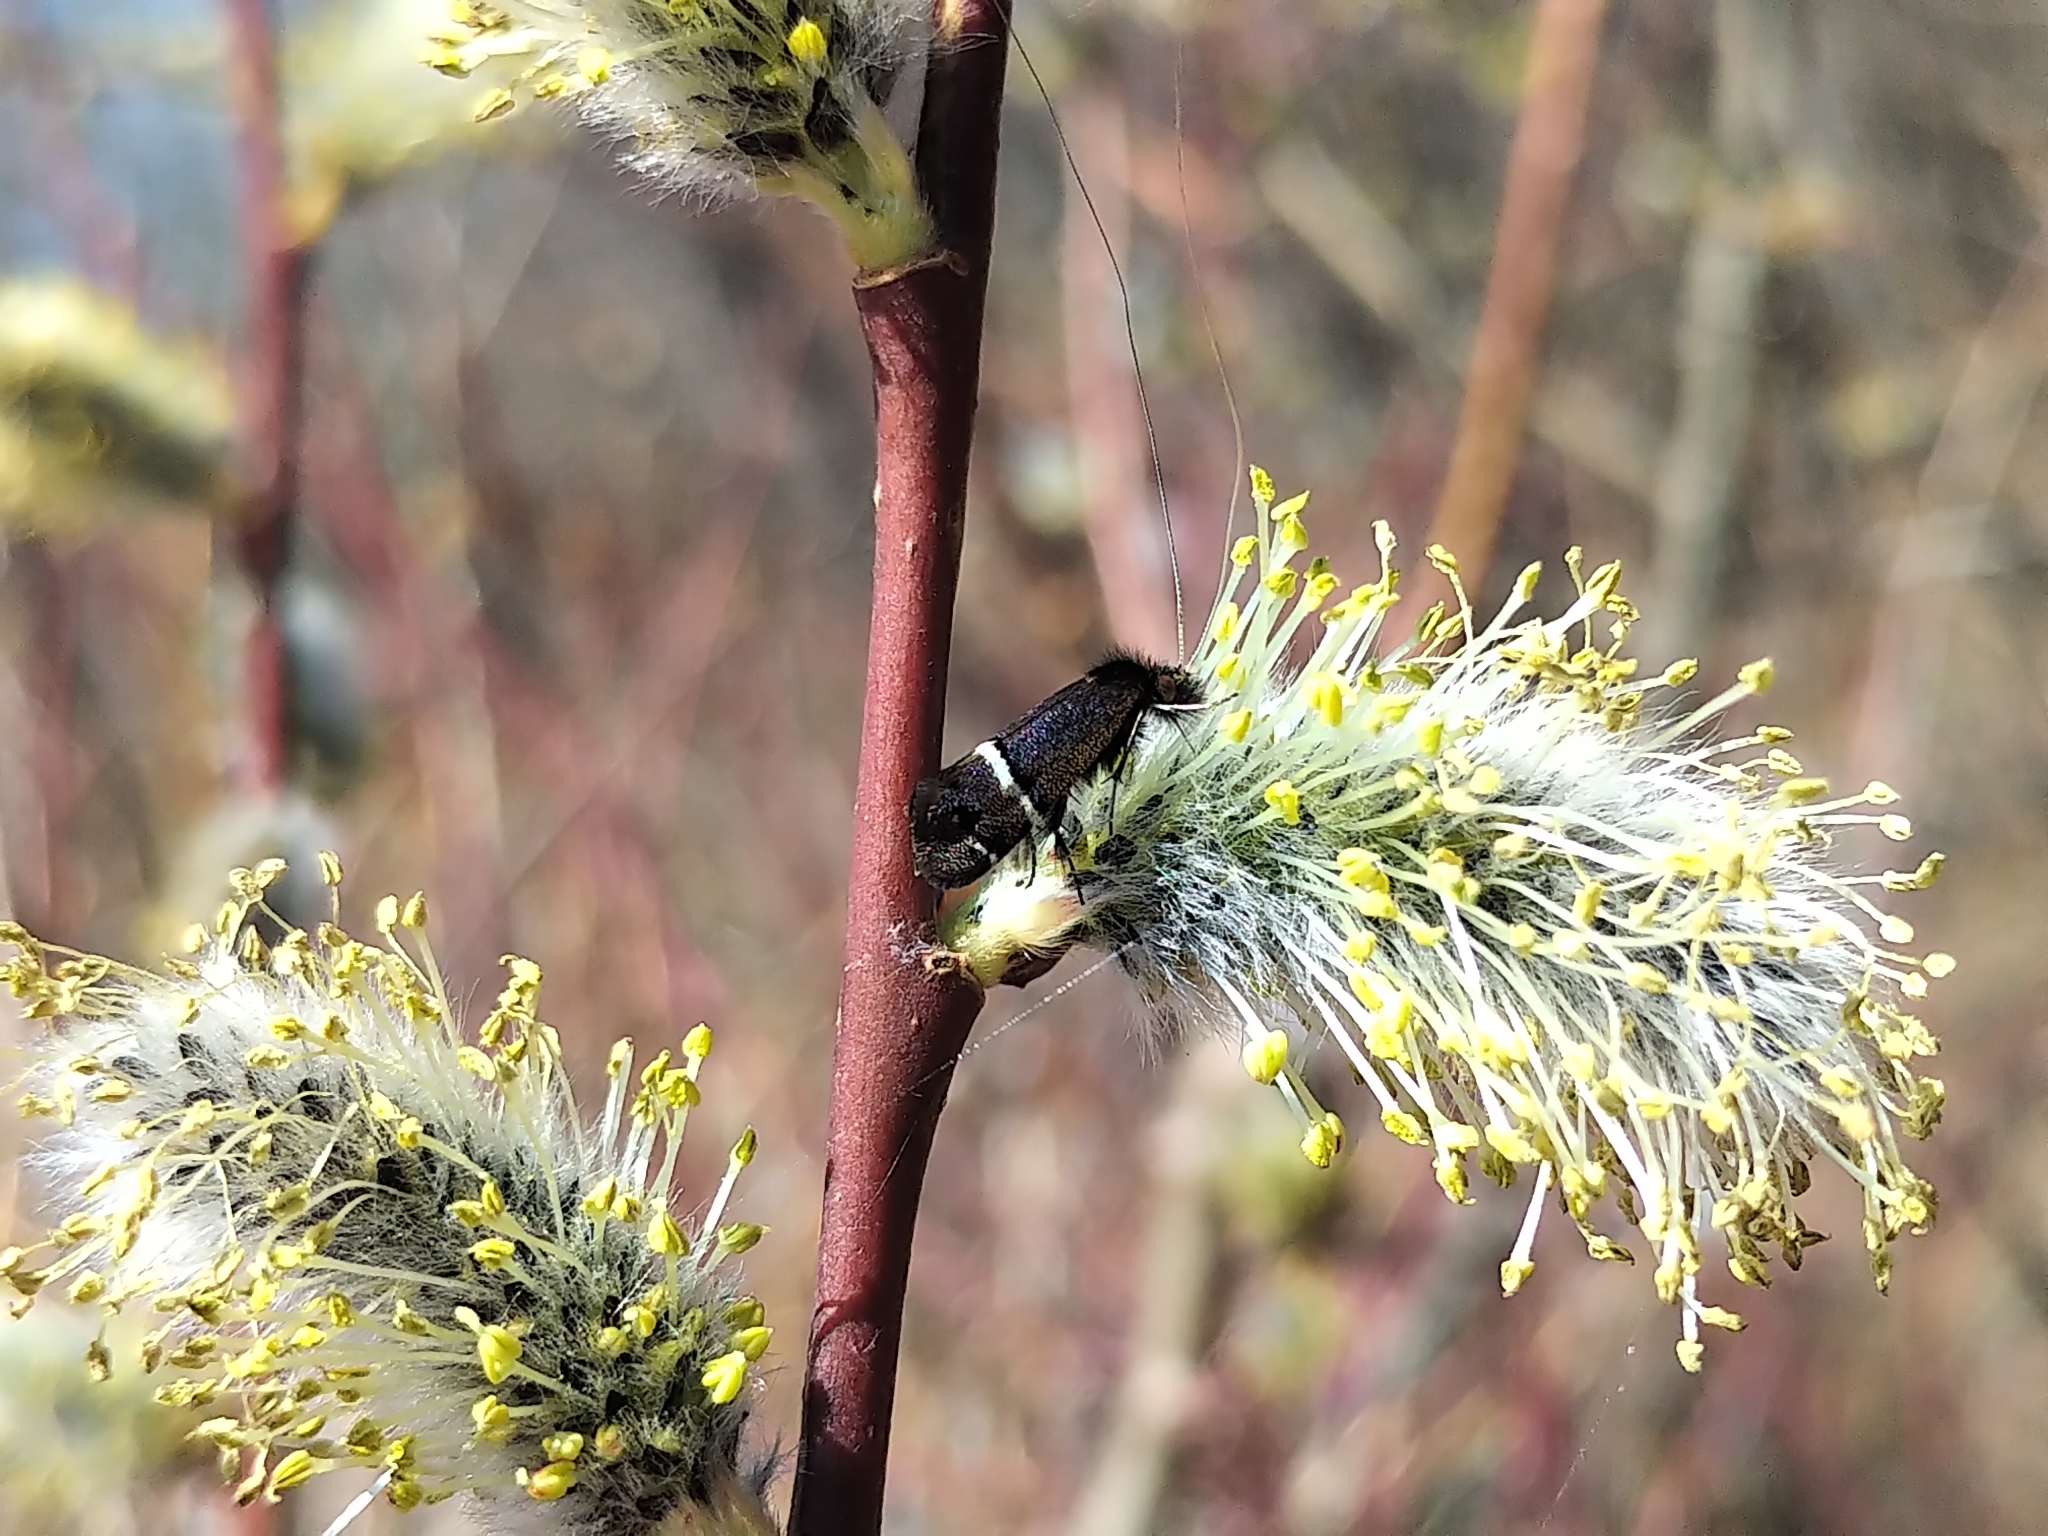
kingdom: Animalia
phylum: Arthropoda
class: Insecta
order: Lepidoptera
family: Adelidae
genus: Adela
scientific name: Adela purpurea
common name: Purple fairy moth
